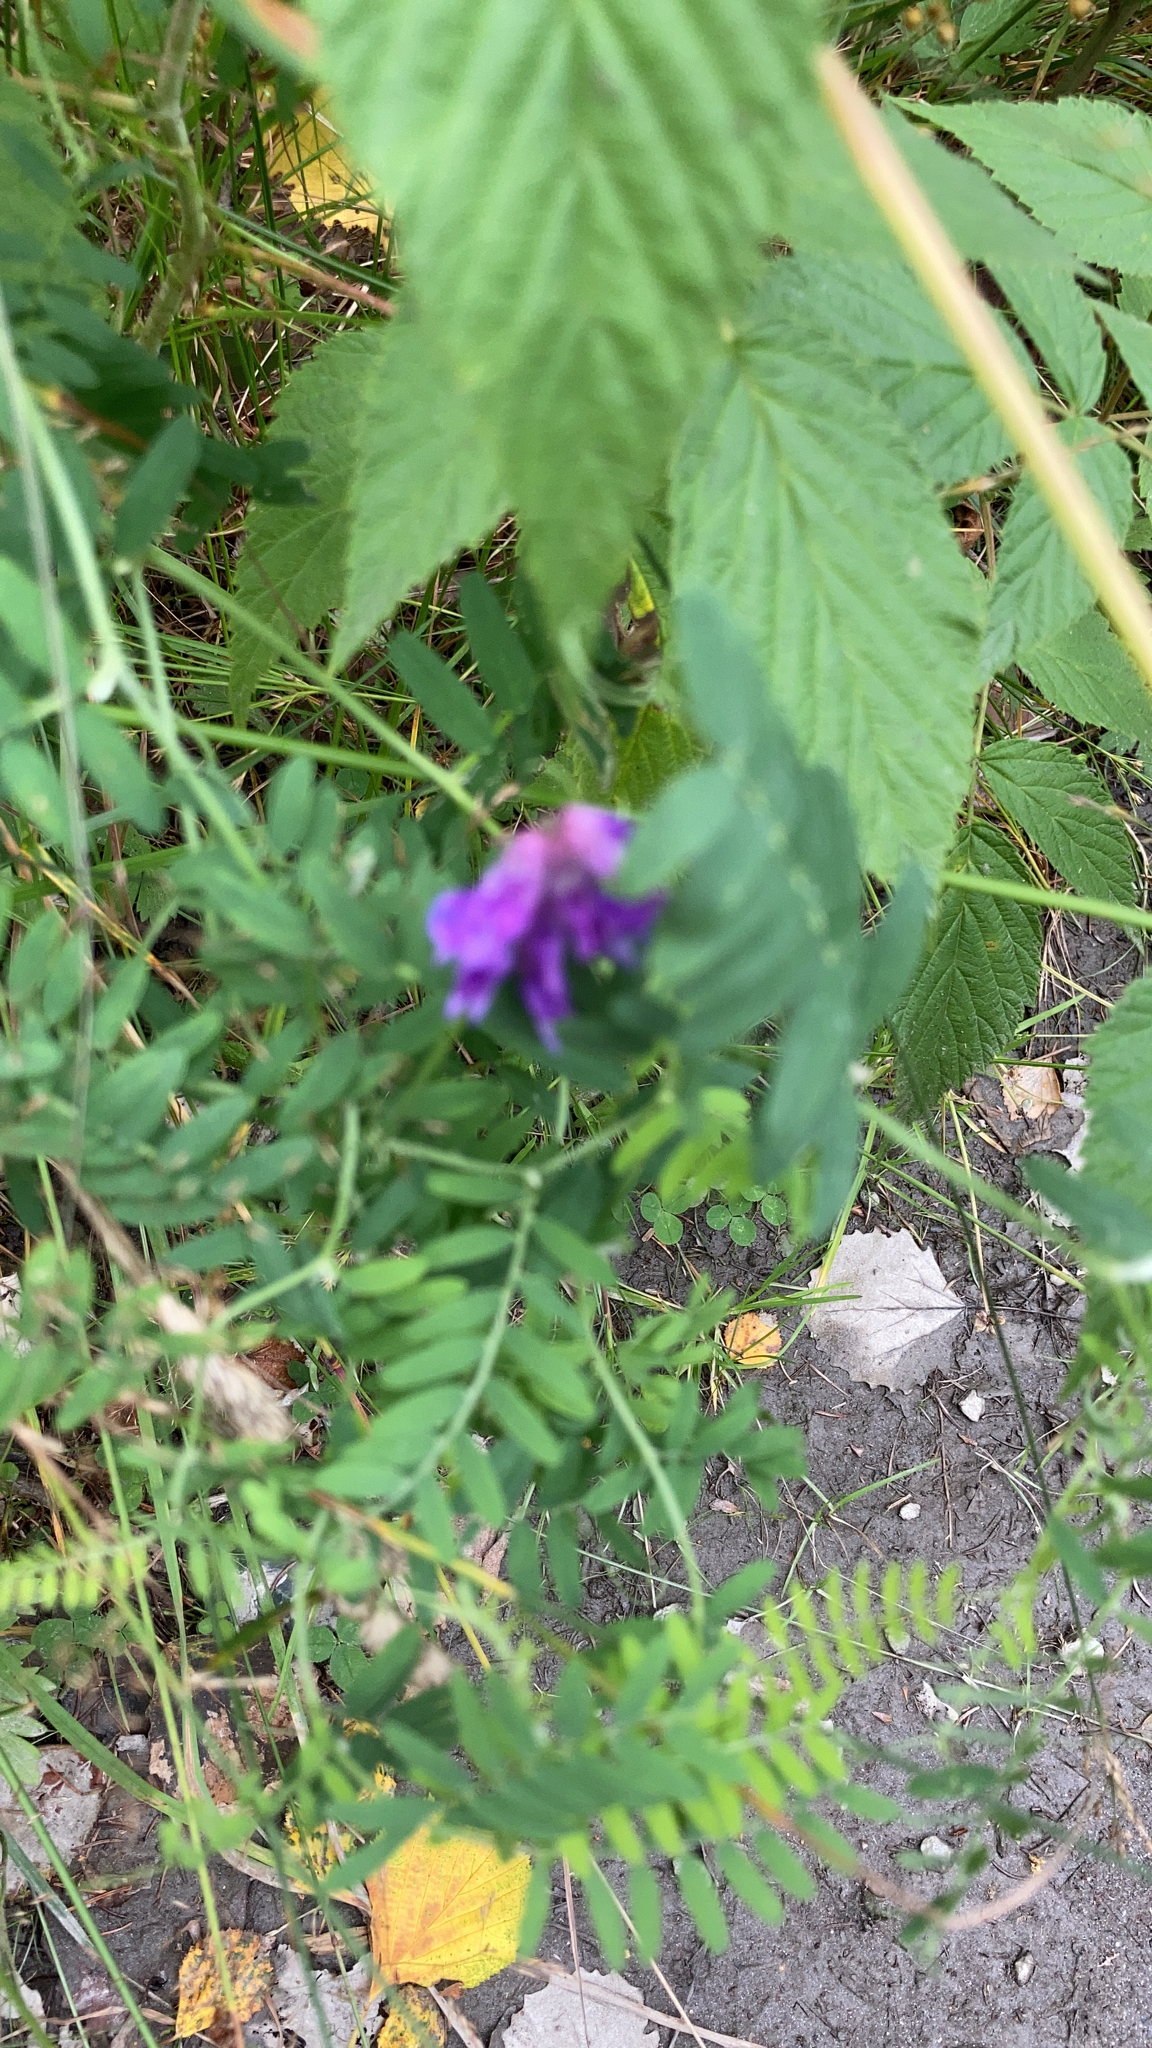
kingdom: Plantae
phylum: Tracheophyta
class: Magnoliopsida
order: Fabales
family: Fabaceae
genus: Vicia
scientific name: Vicia cracca
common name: Bird vetch
